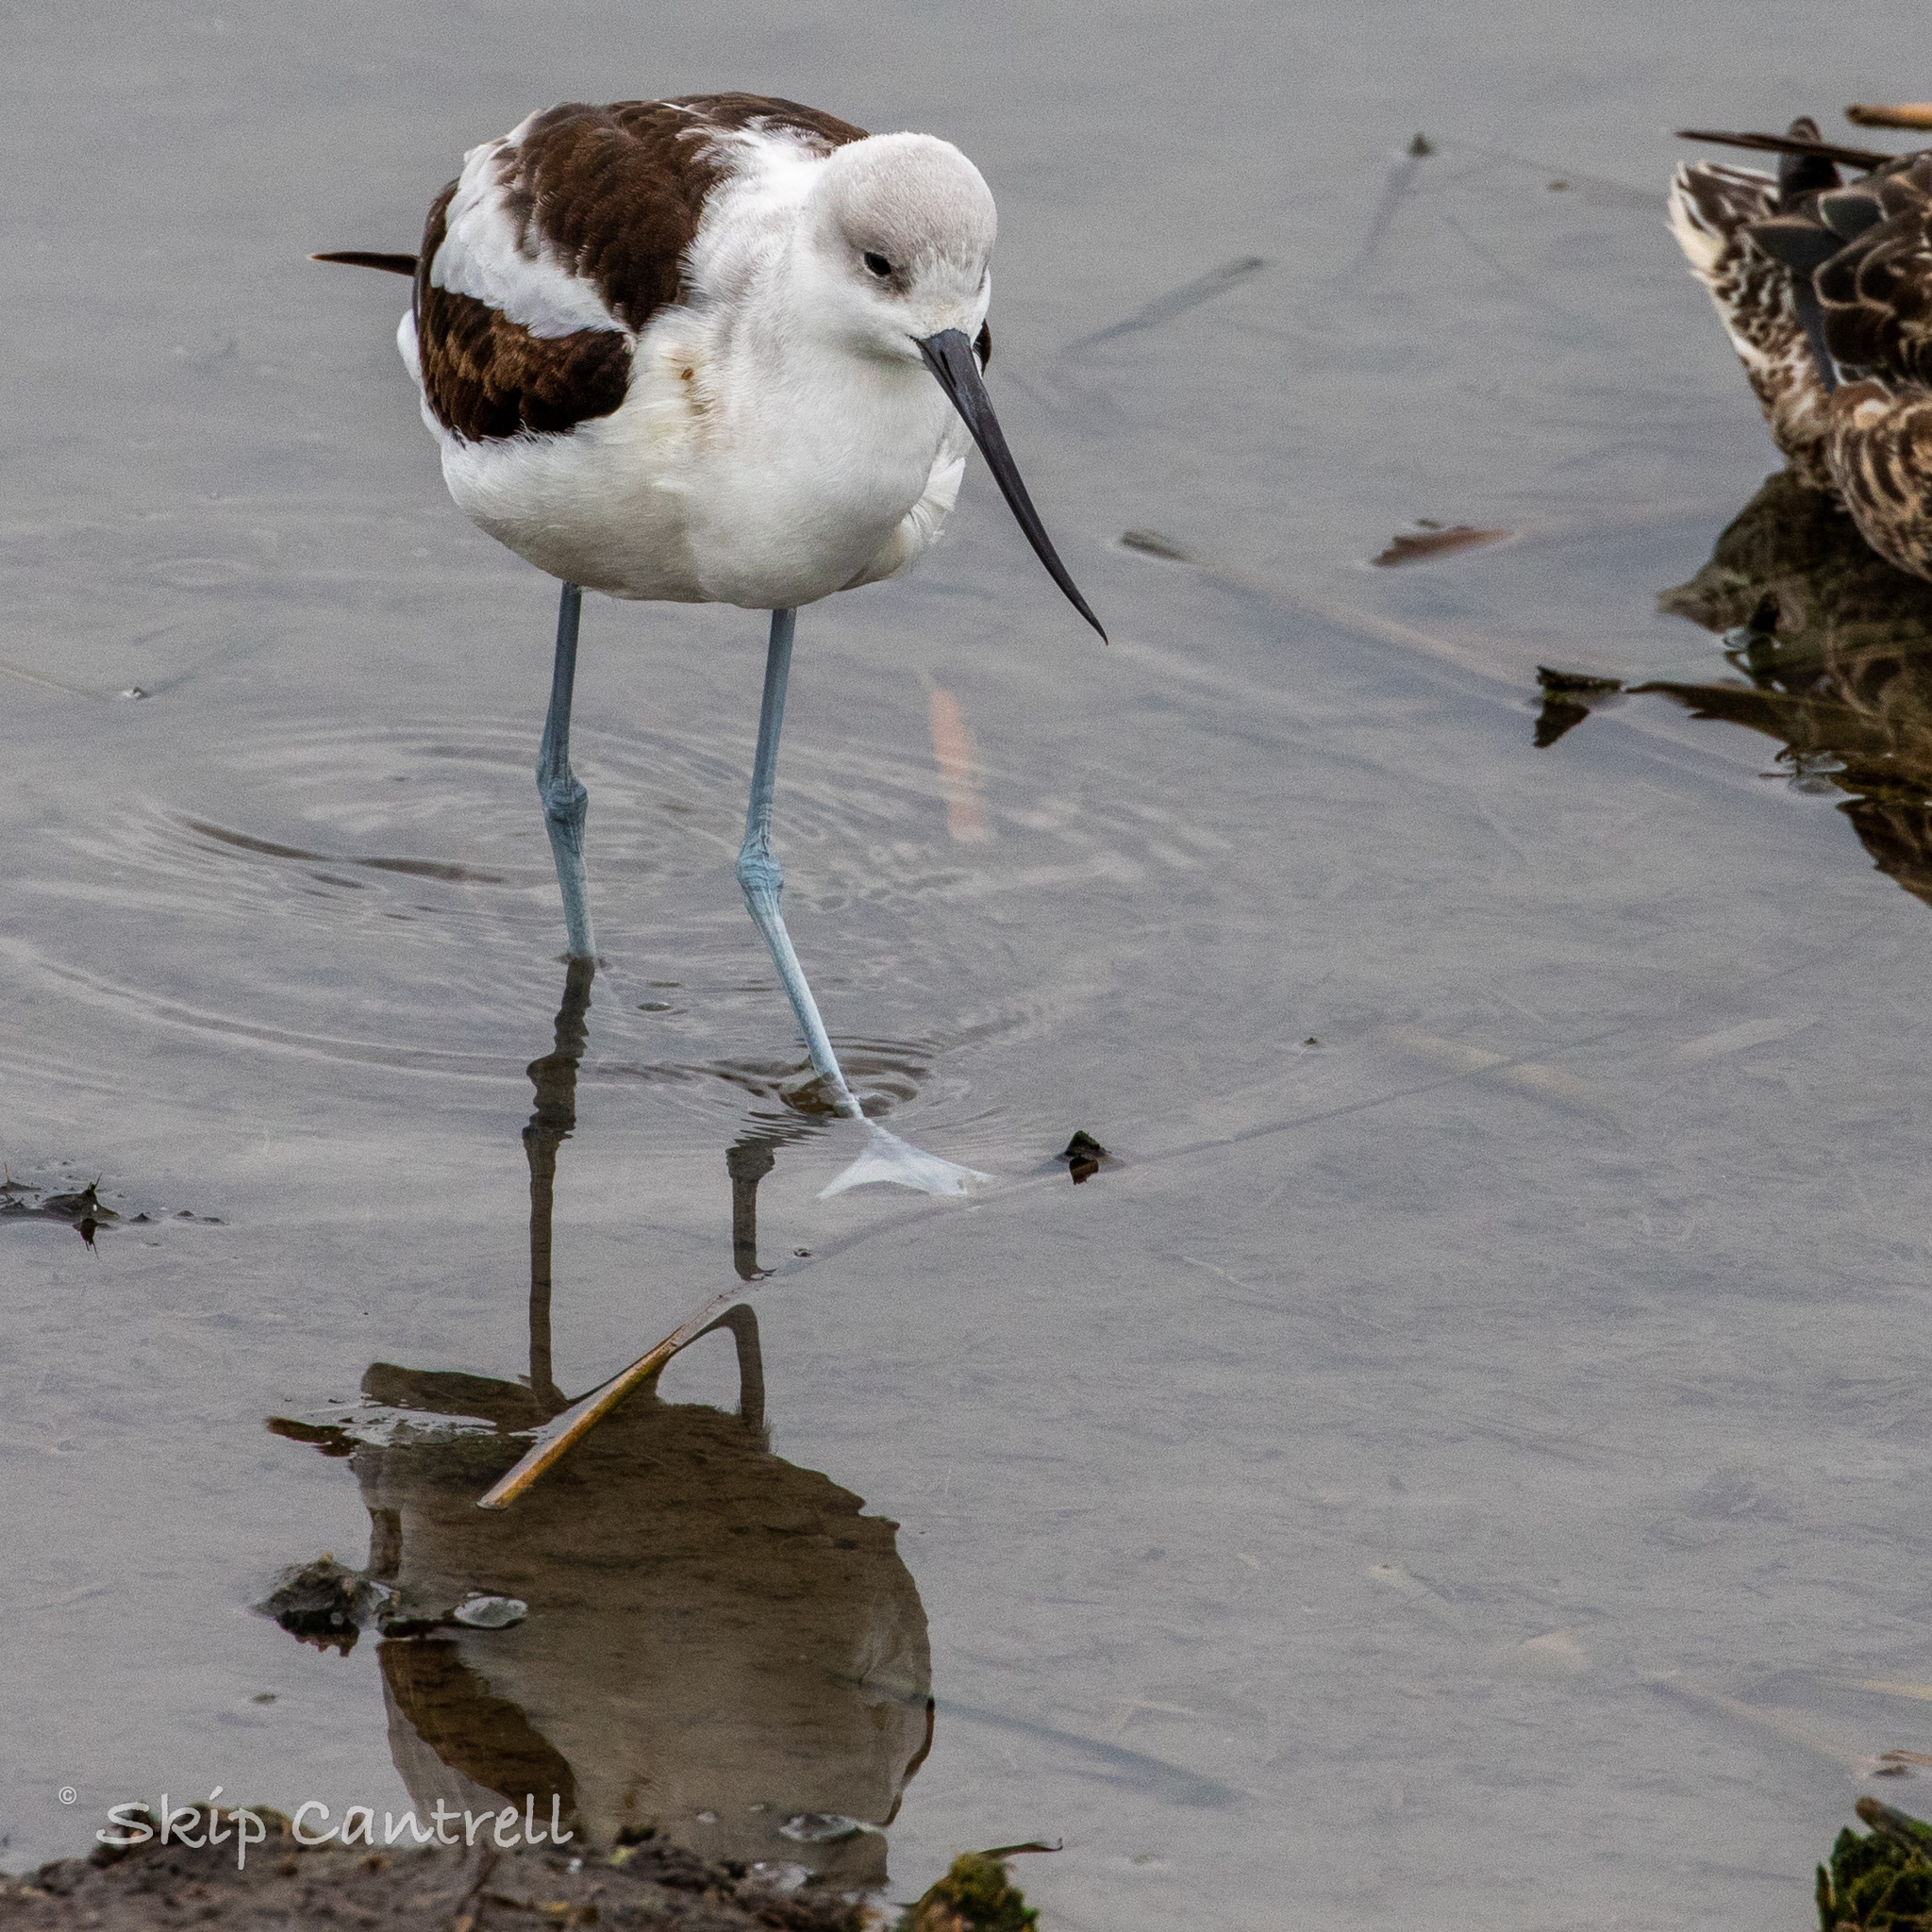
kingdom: Animalia
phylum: Chordata
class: Aves
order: Charadriiformes
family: Recurvirostridae
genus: Recurvirostra
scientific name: Recurvirostra americana
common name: American avocet
